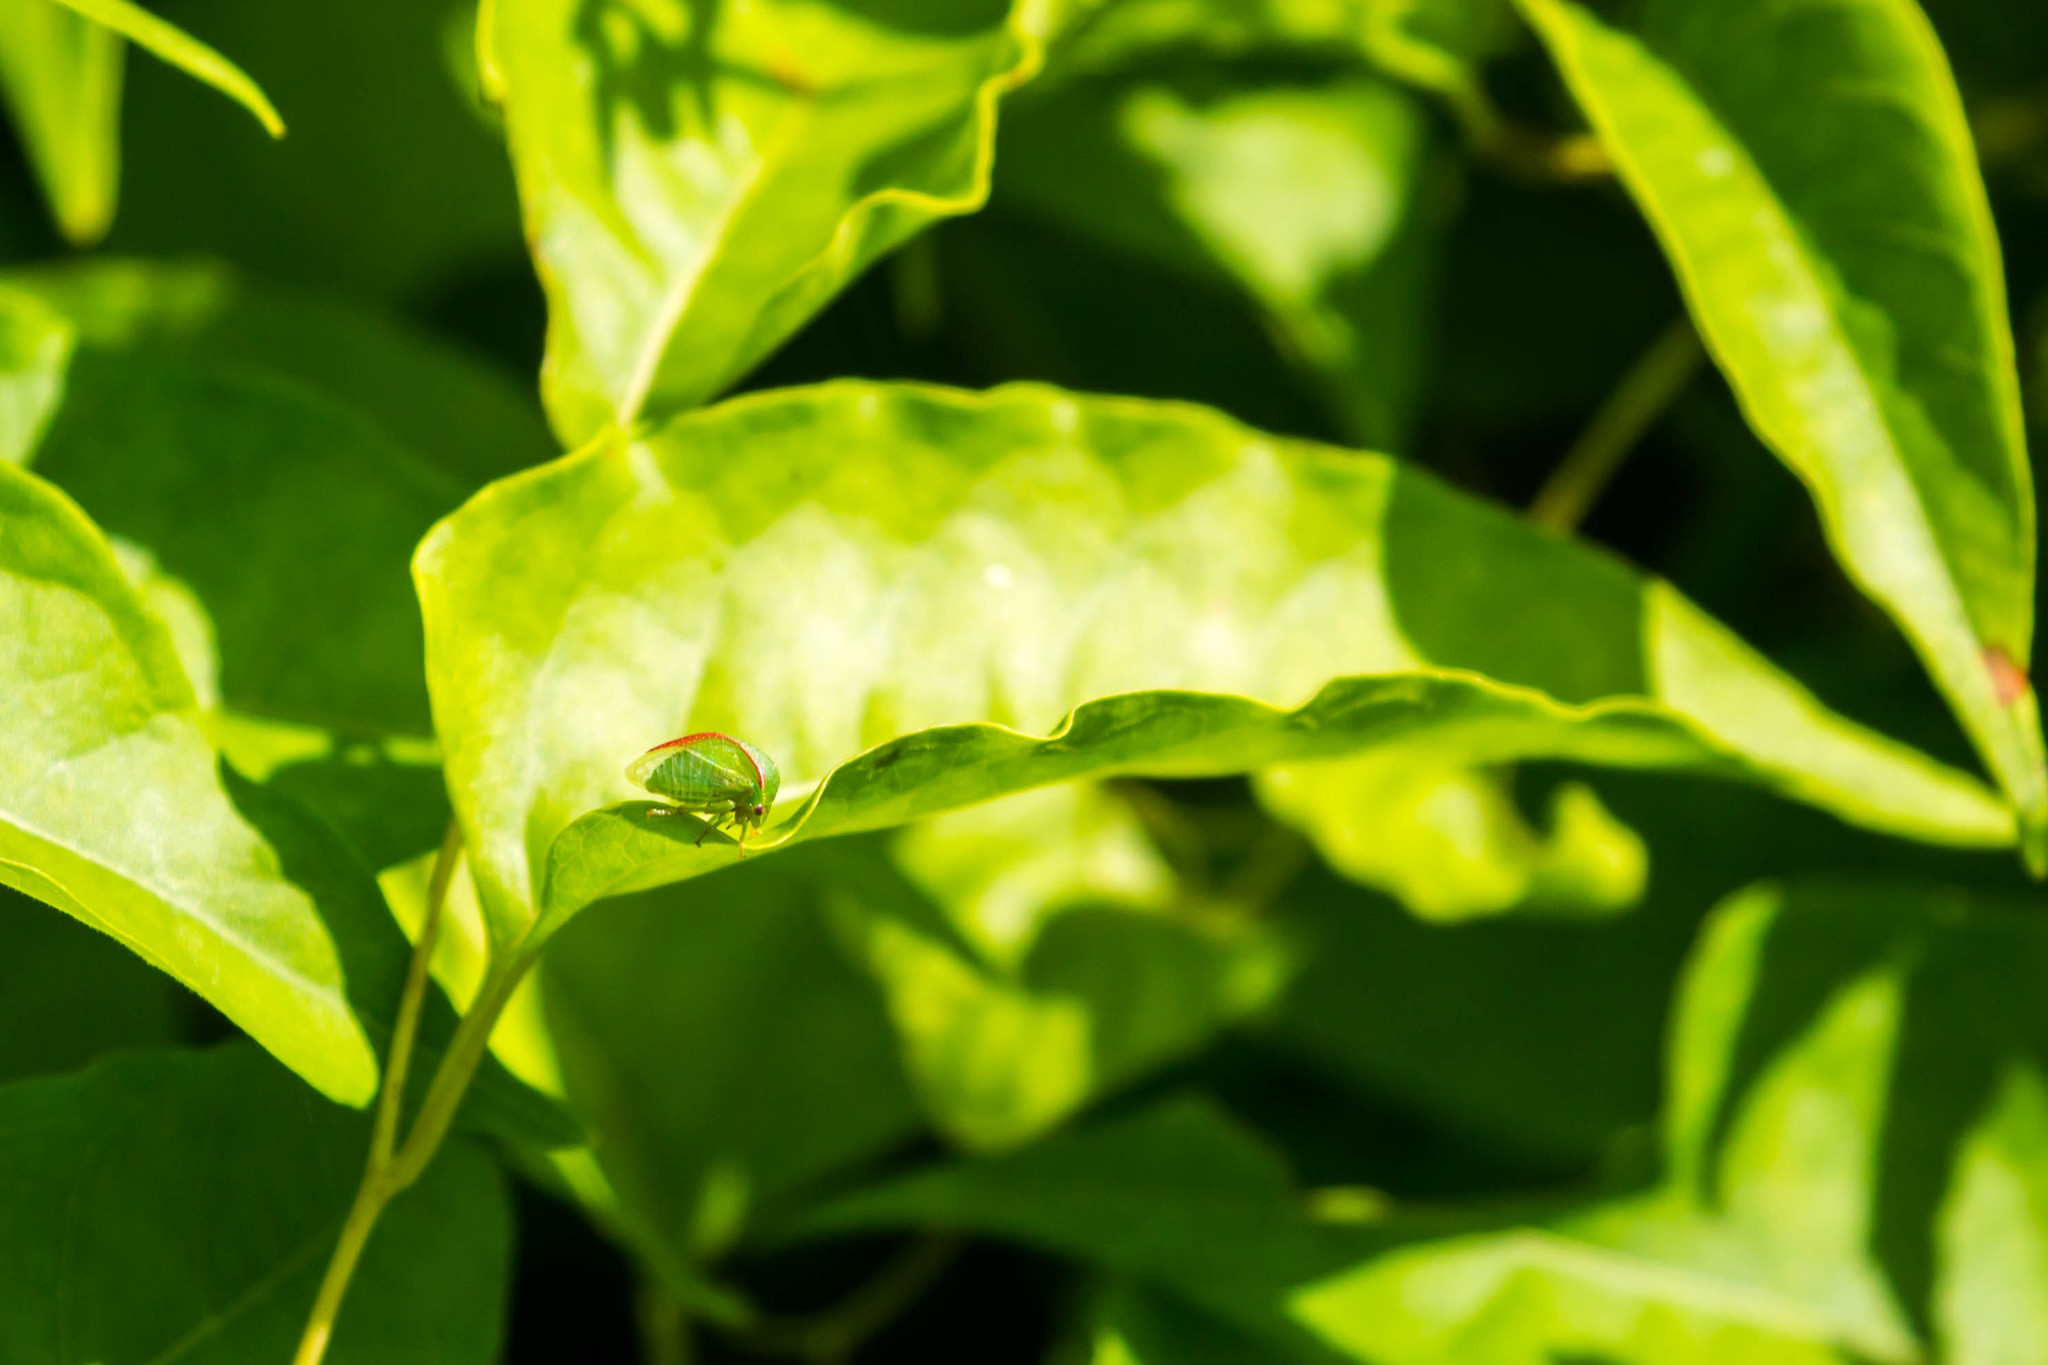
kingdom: Animalia
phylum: Arthropoda
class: Insecta
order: Hemiptera
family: Membracidae
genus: Spissistilus
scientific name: Spissistilus festina
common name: Membracid bug
